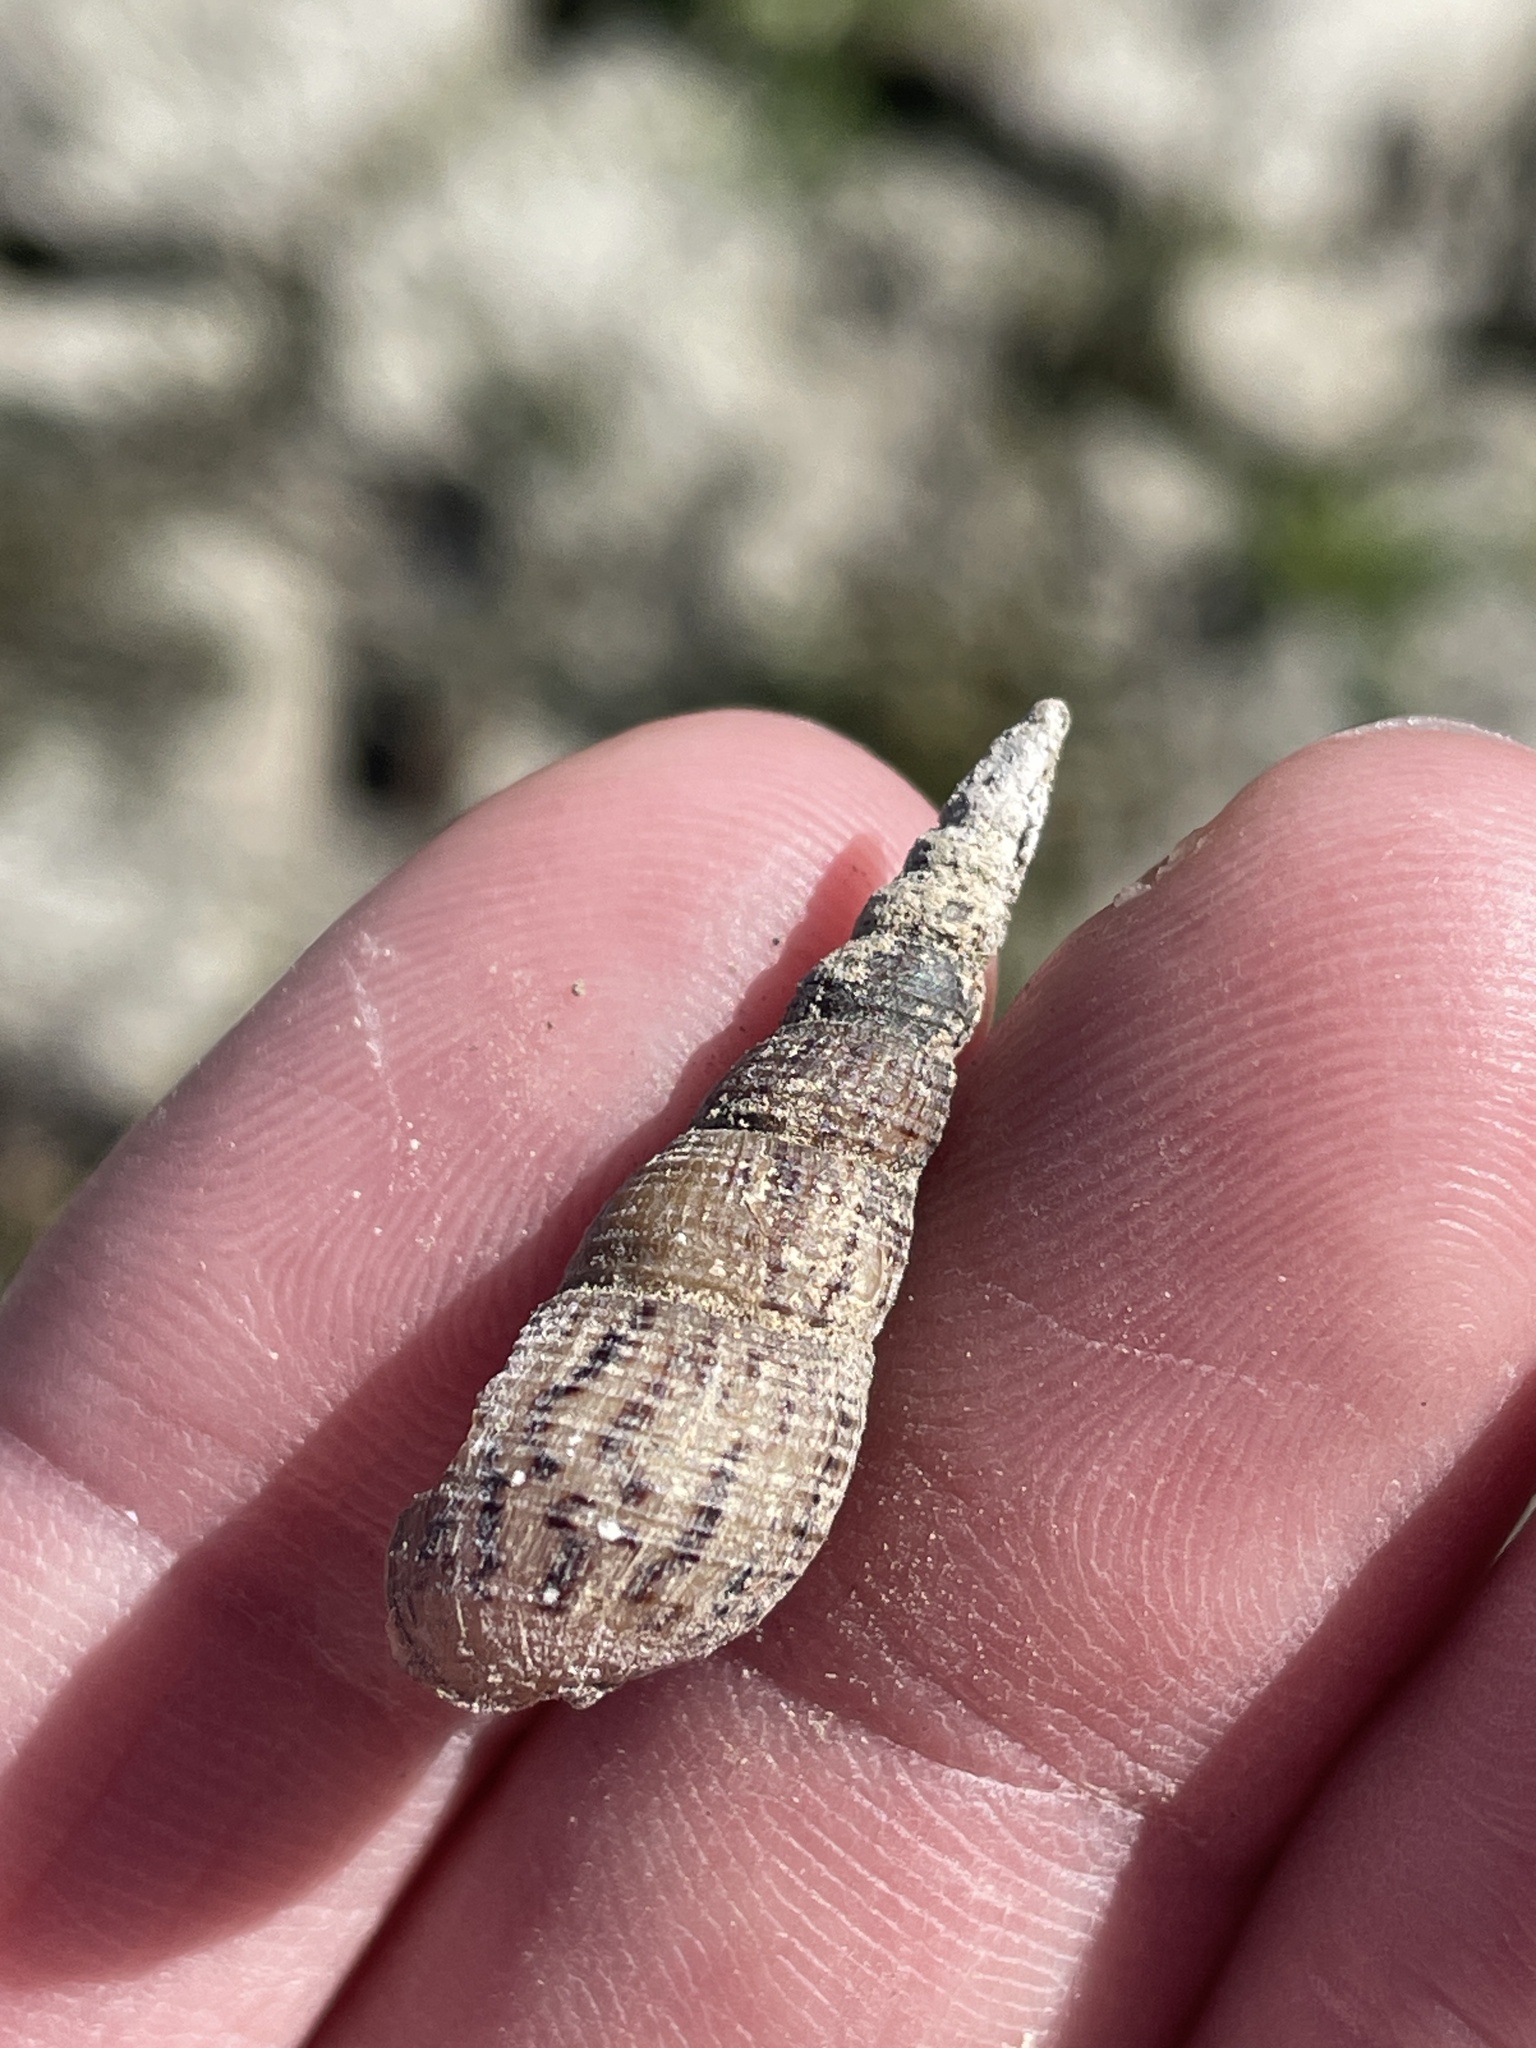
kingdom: Animalia
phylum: Mollusca
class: Gastropoda
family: Thiaridae
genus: Melanoides
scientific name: Melanoides tuberculata
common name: Red-rim melania
